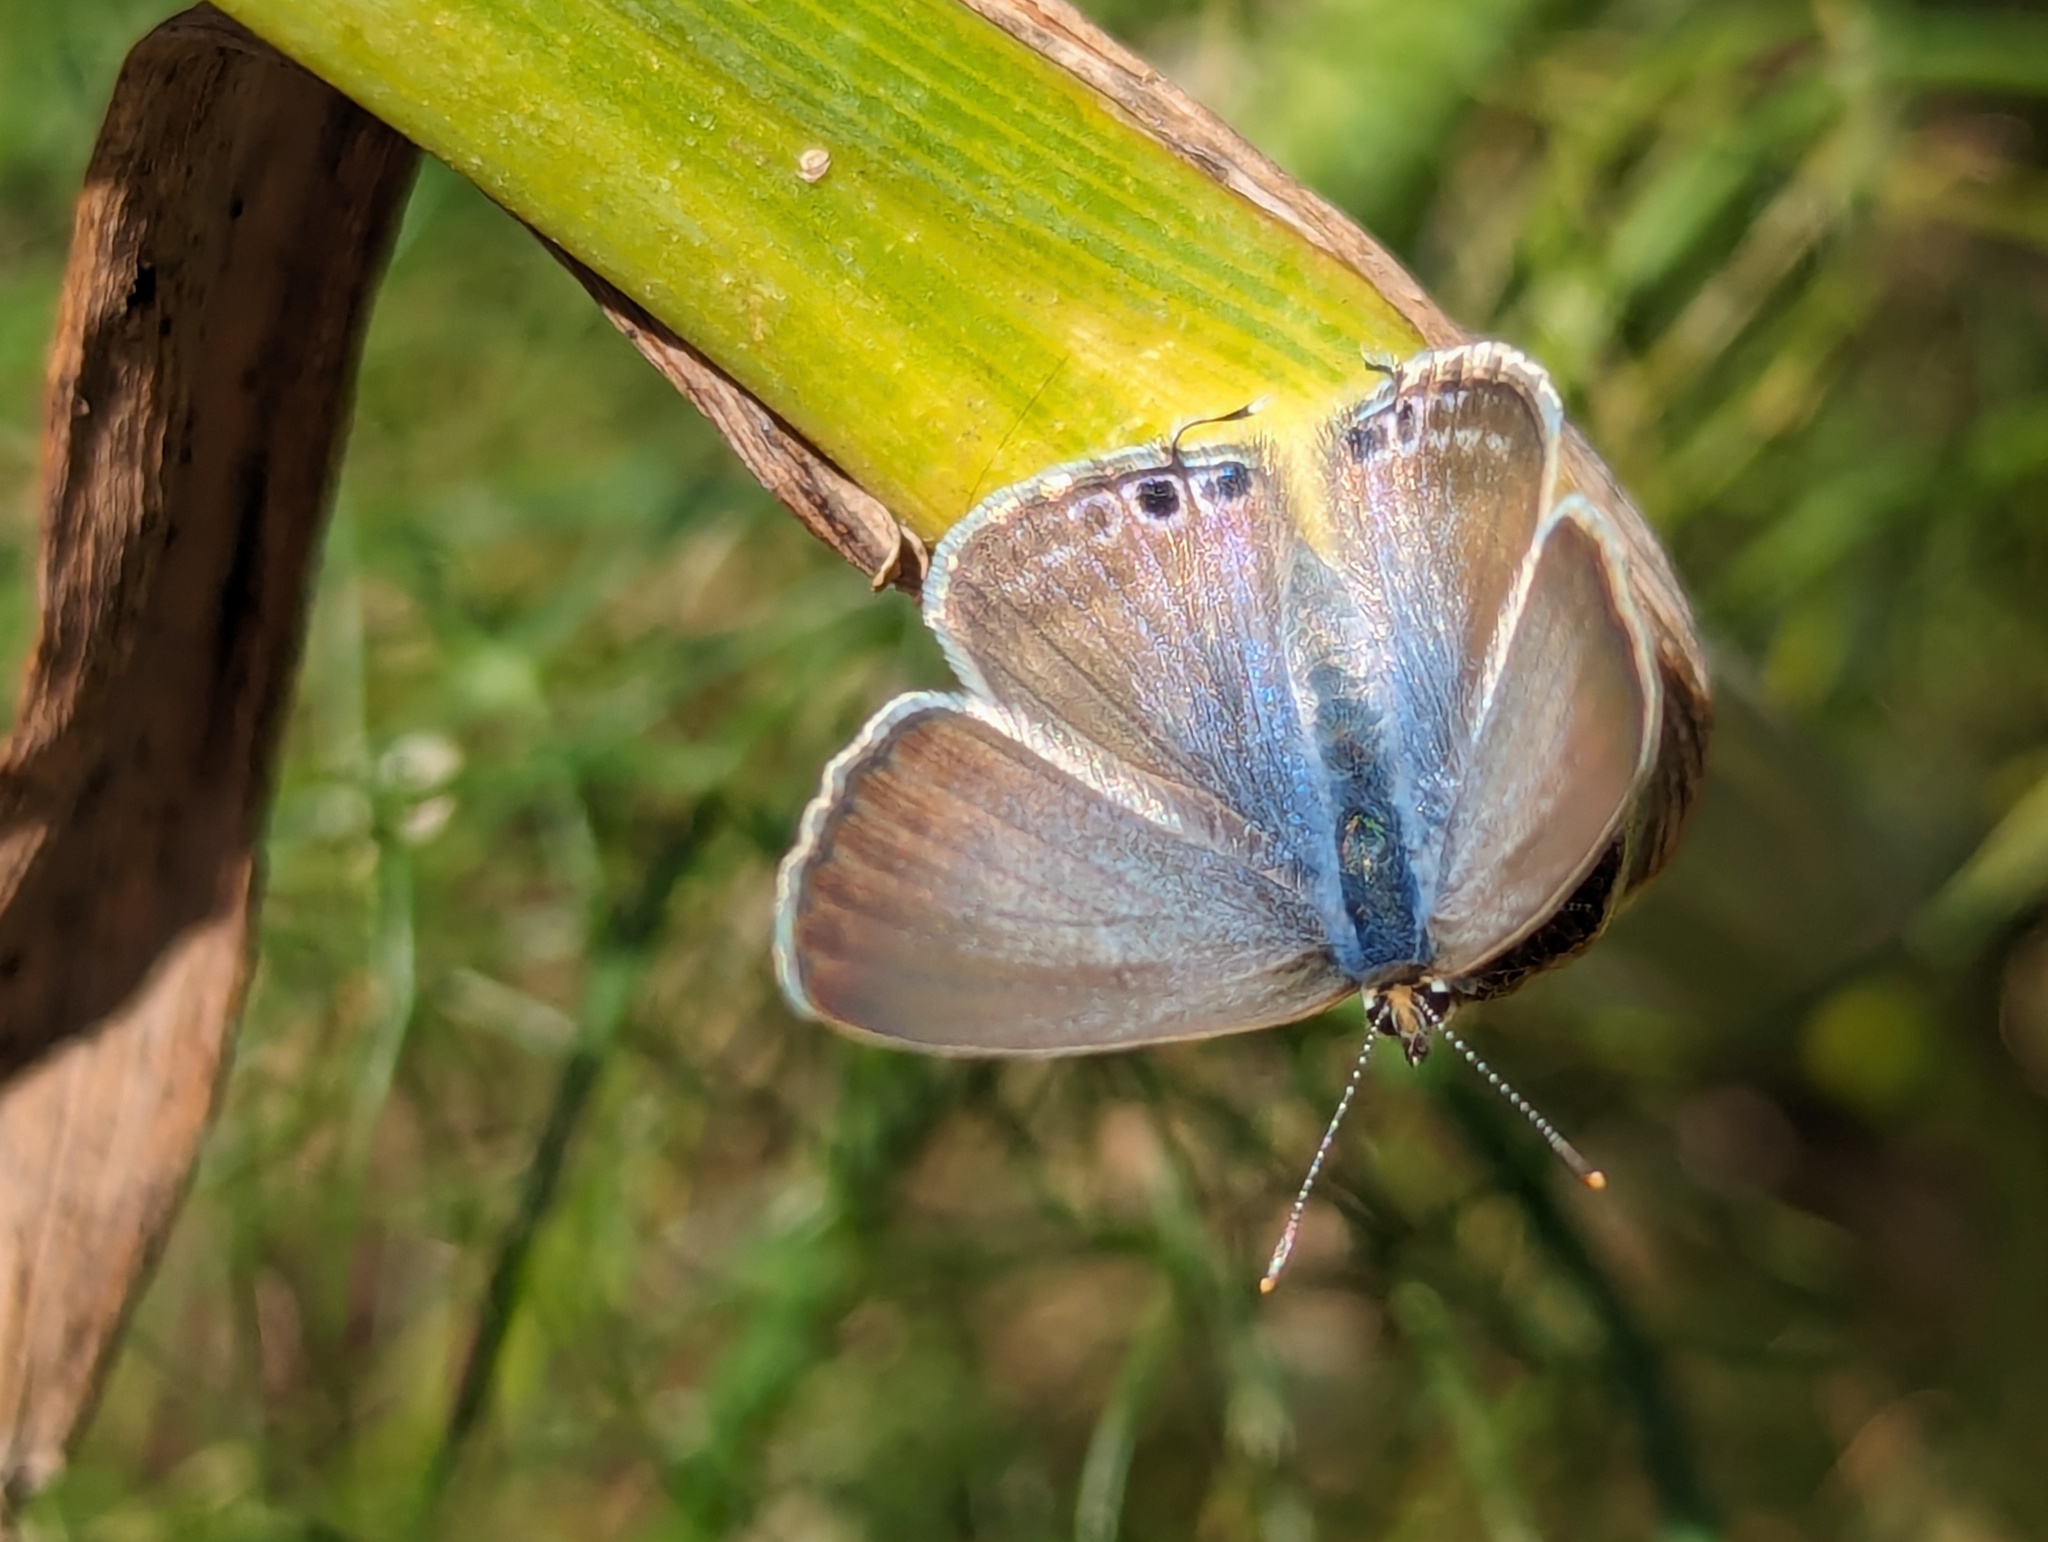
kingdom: Animalia
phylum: Arthropoda
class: Insecta
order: Lepidoptera
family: Lycaenidae
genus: Lampides
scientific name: Lampides boeticus
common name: Long-tailed blue
